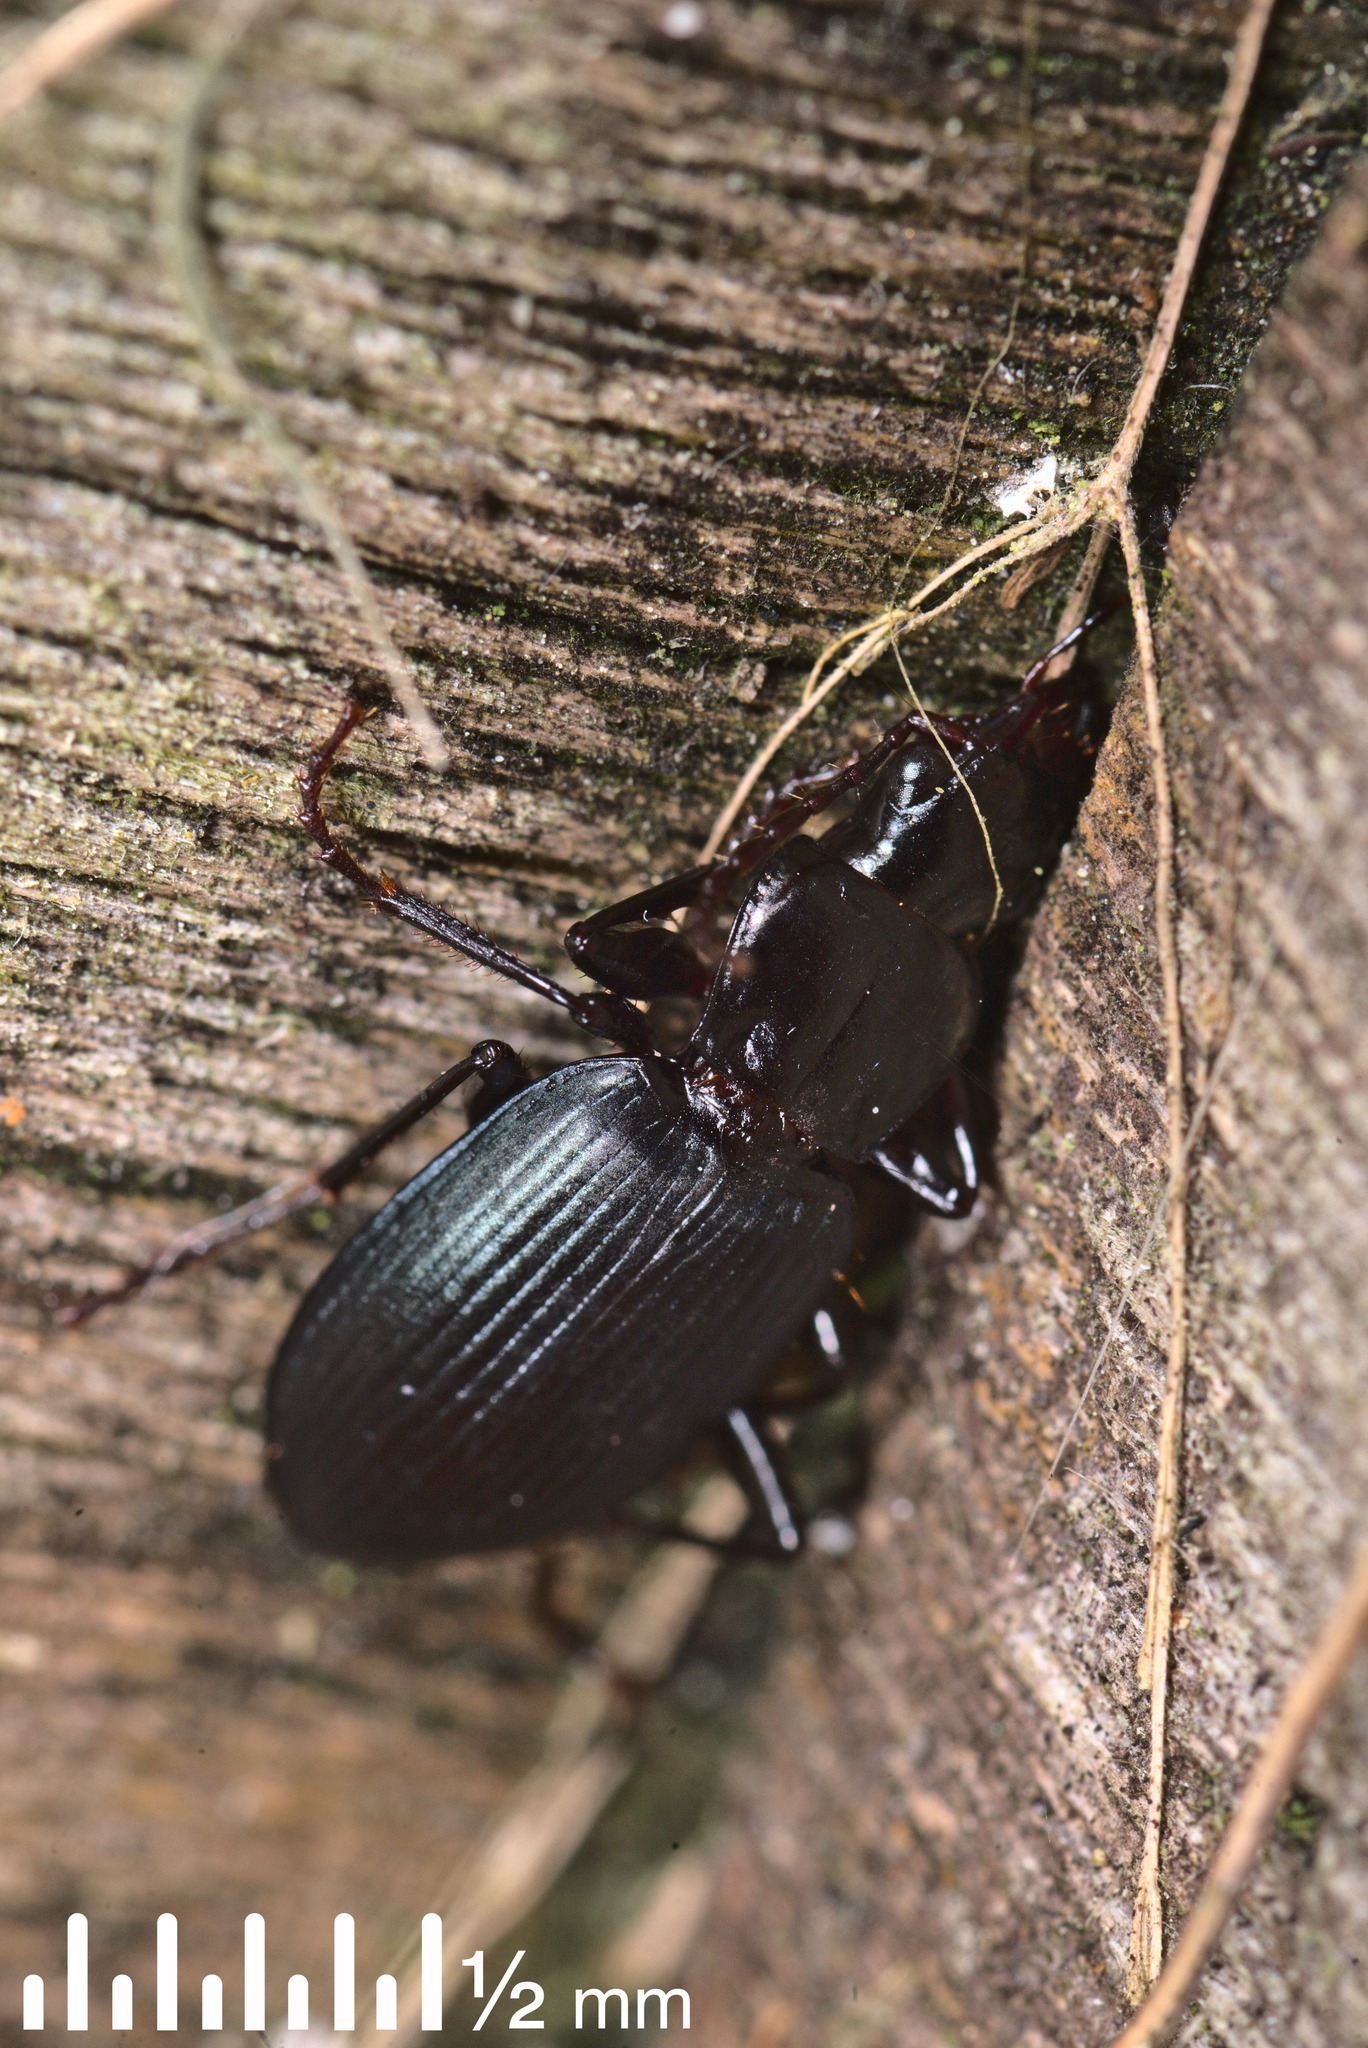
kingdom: Animalia
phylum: Arthropoda
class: Insecta
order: Coleoptera
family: Carabidae
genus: Laemostenus
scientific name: Laemostenus complanatus
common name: Cosmopolitan ground beetle
